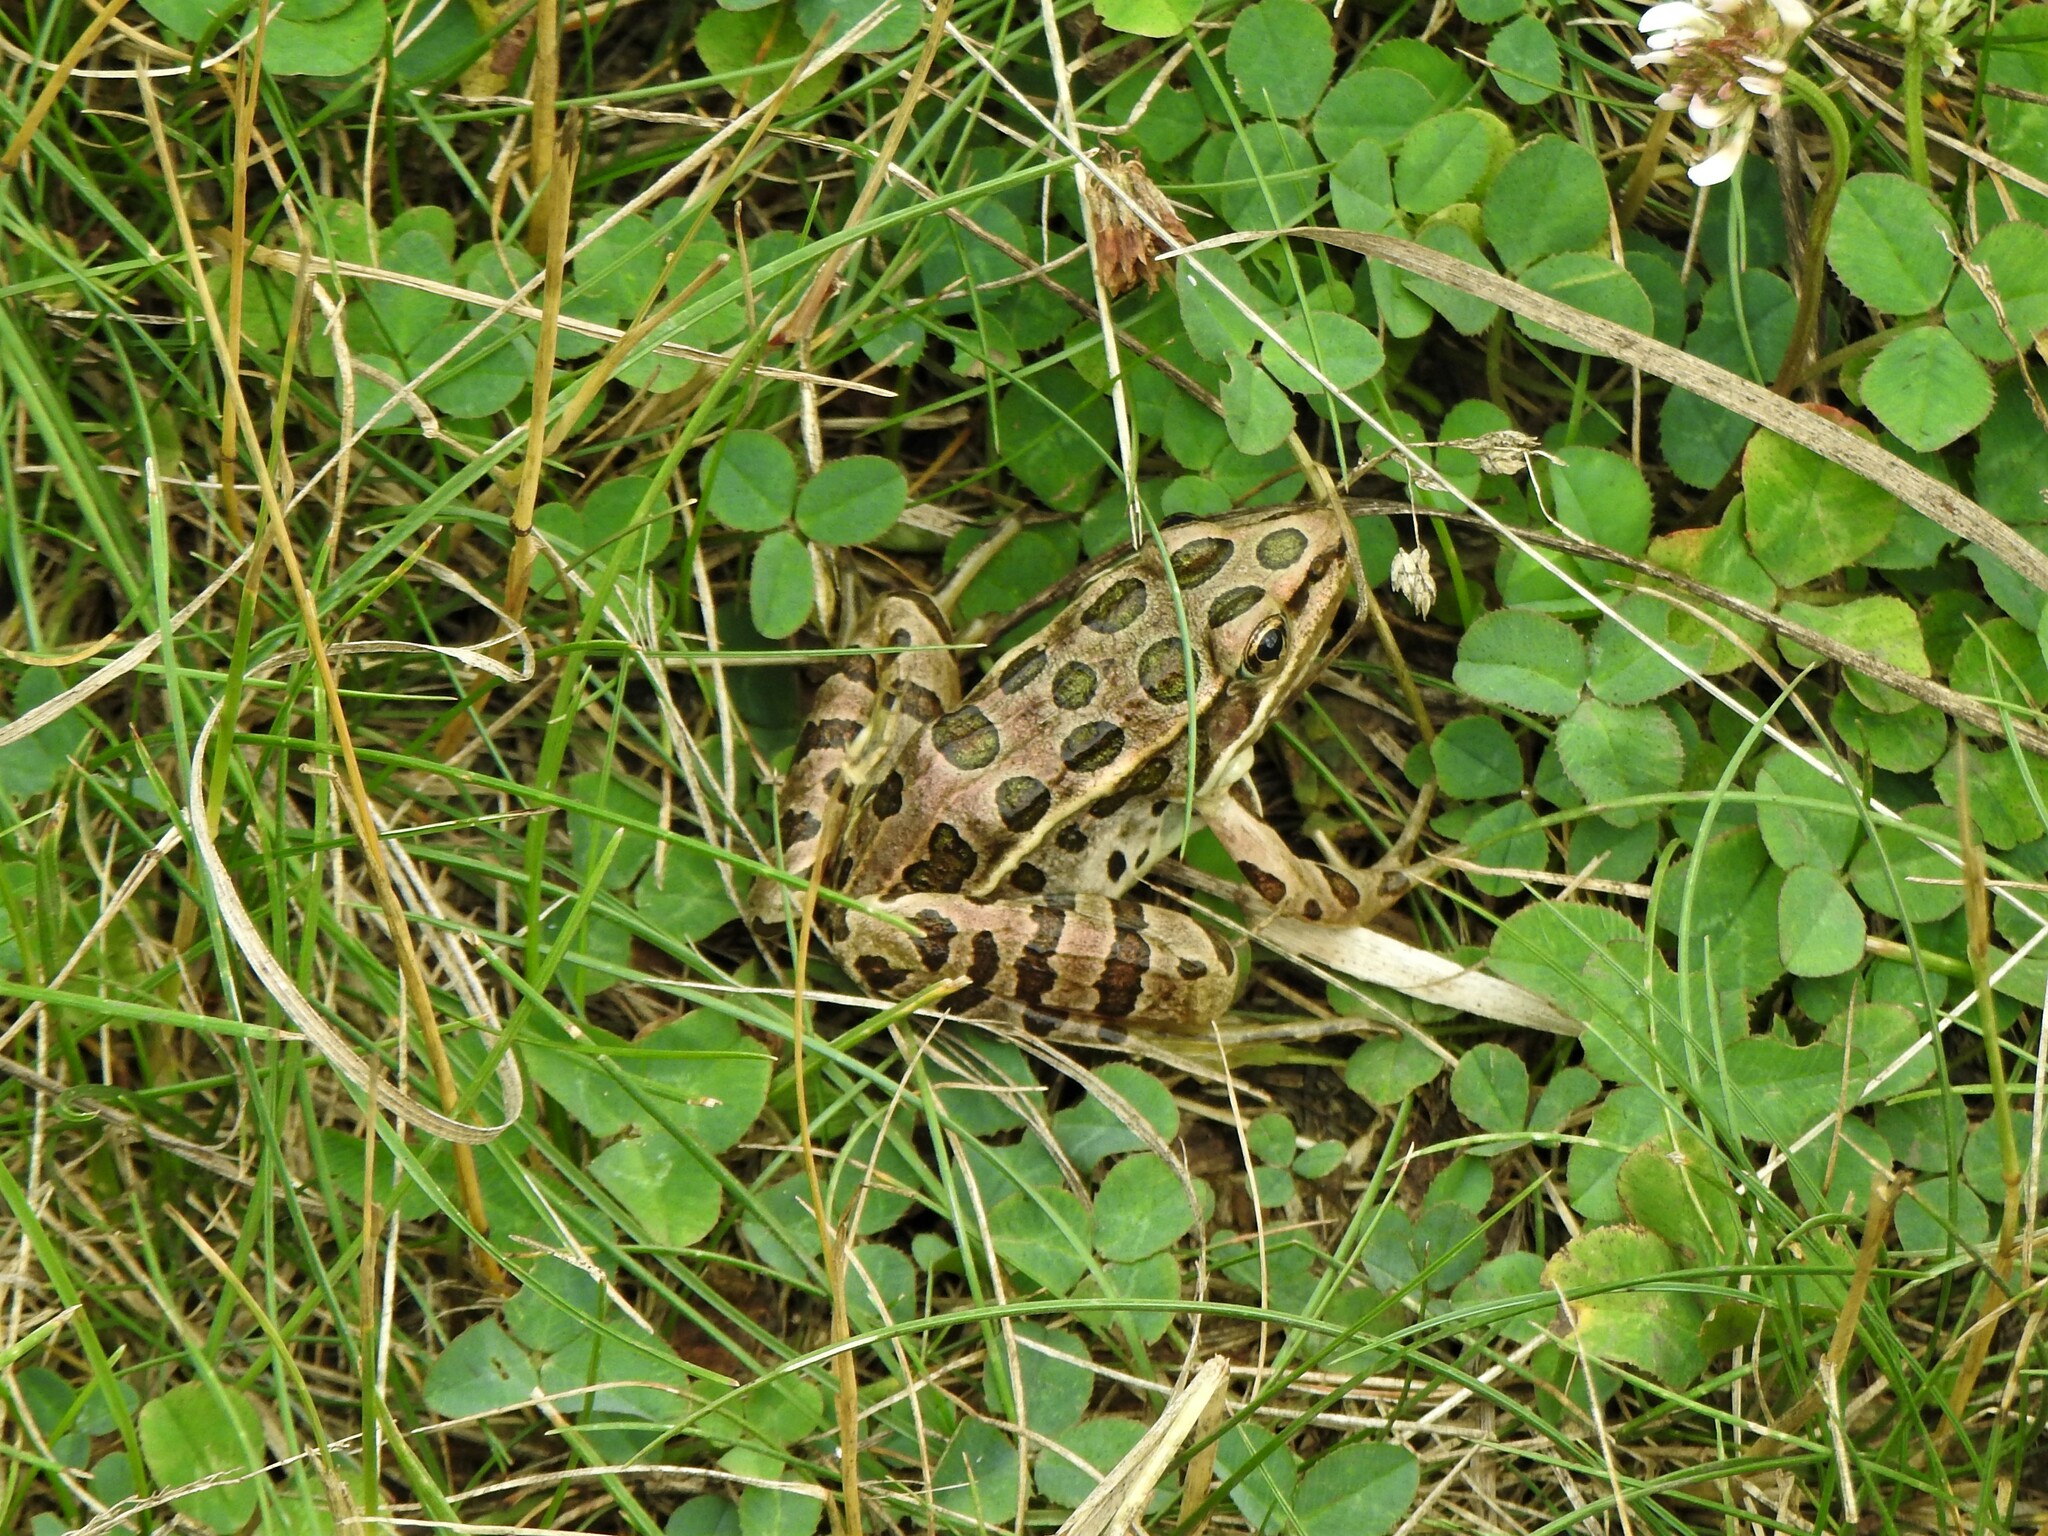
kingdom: Animalia
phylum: Chordata
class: Amphibia
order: Anura
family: Ranidae
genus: Lithobates
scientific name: Lithobates pipiens
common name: Northern leopard frog
